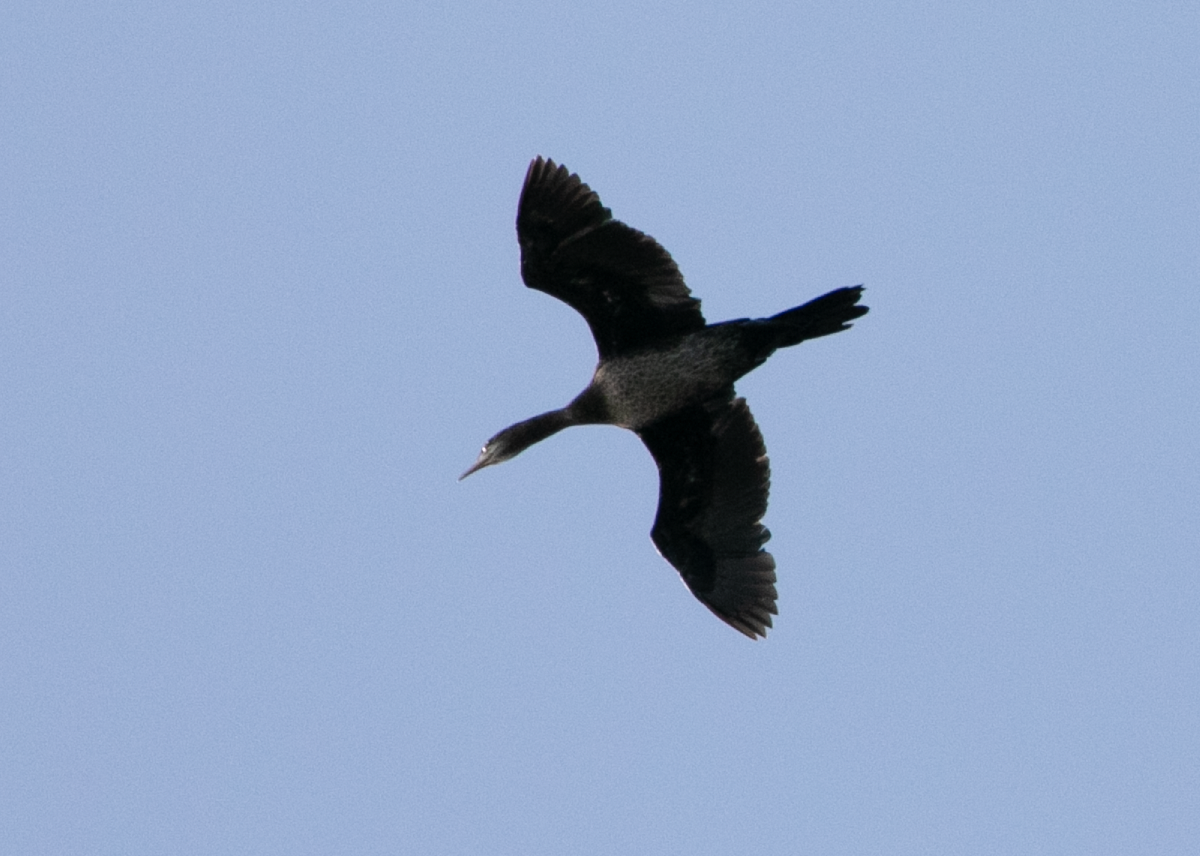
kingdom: Animalia
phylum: Chordata
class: Aves
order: Suliformes
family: Phalacrocoracidae
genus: Microcarbo
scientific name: Microcarbo pygmaeus
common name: Pygmy cormorant
